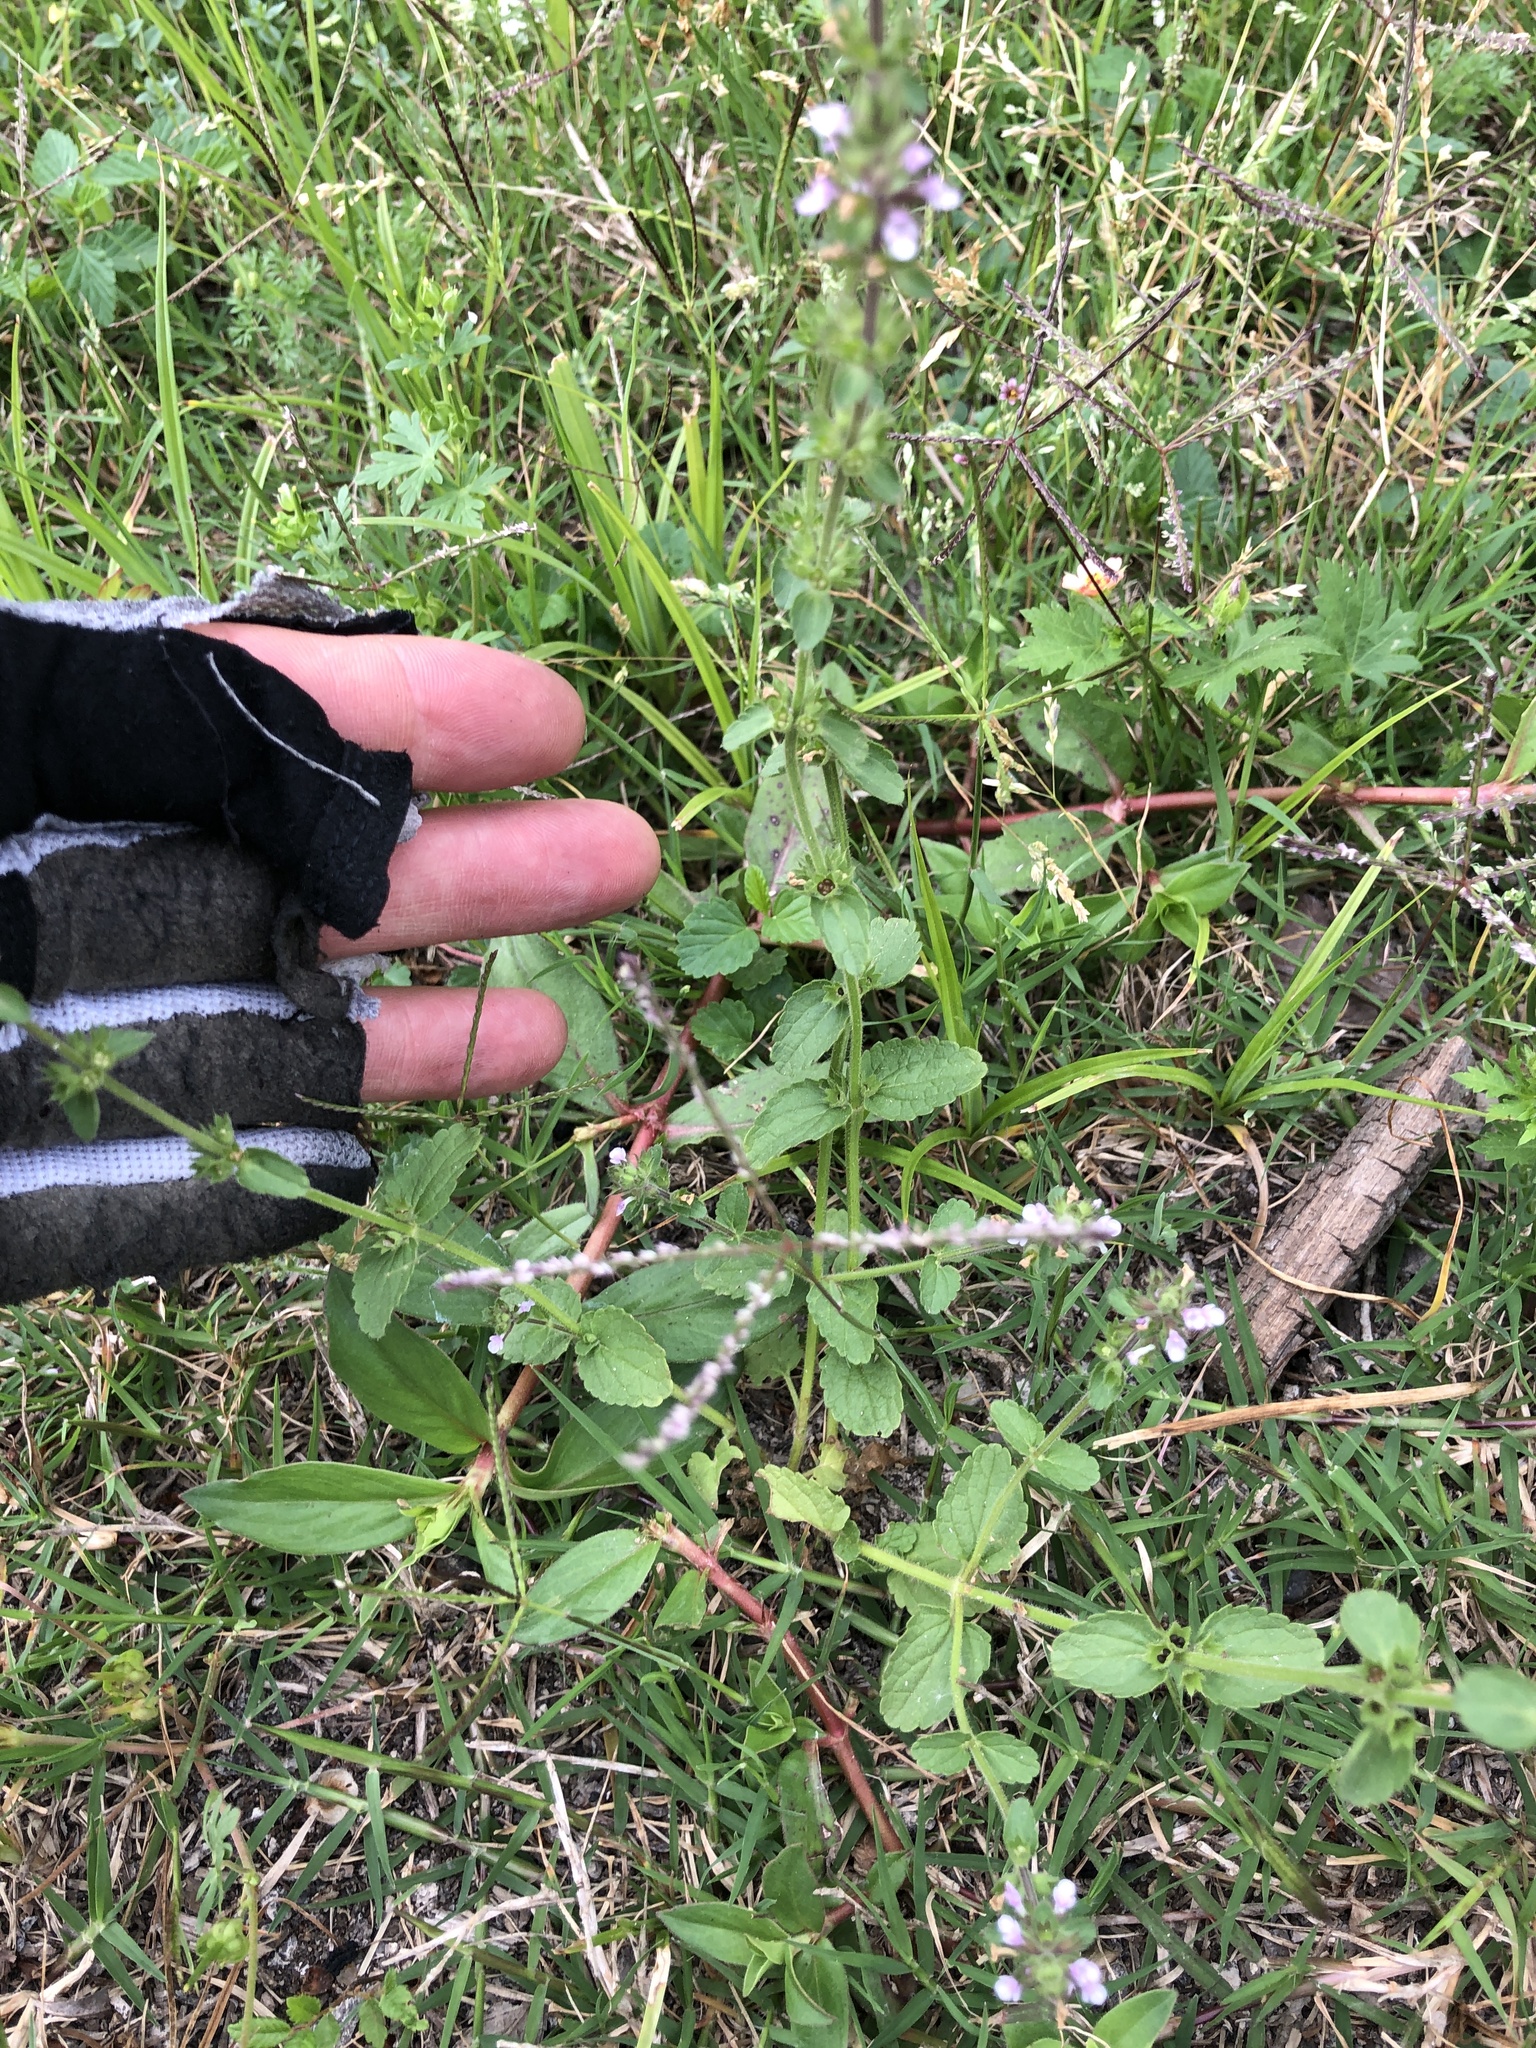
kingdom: Plantae
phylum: Tracheophyta
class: Magnoliopsida
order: Lamiales
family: Lamiaceae
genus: Stachys
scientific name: Stachys
